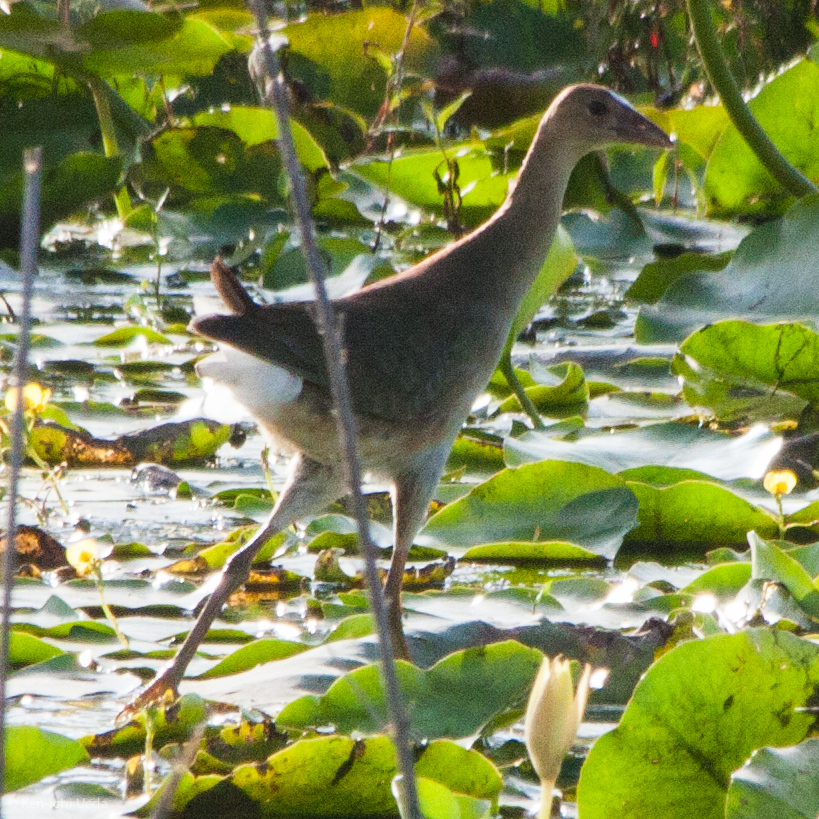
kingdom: Animalia
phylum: Chordata
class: Aves
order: Gruiformes
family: Rallidae
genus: Porphyrio
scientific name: Porphyrio martinica
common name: Purple gallinule
